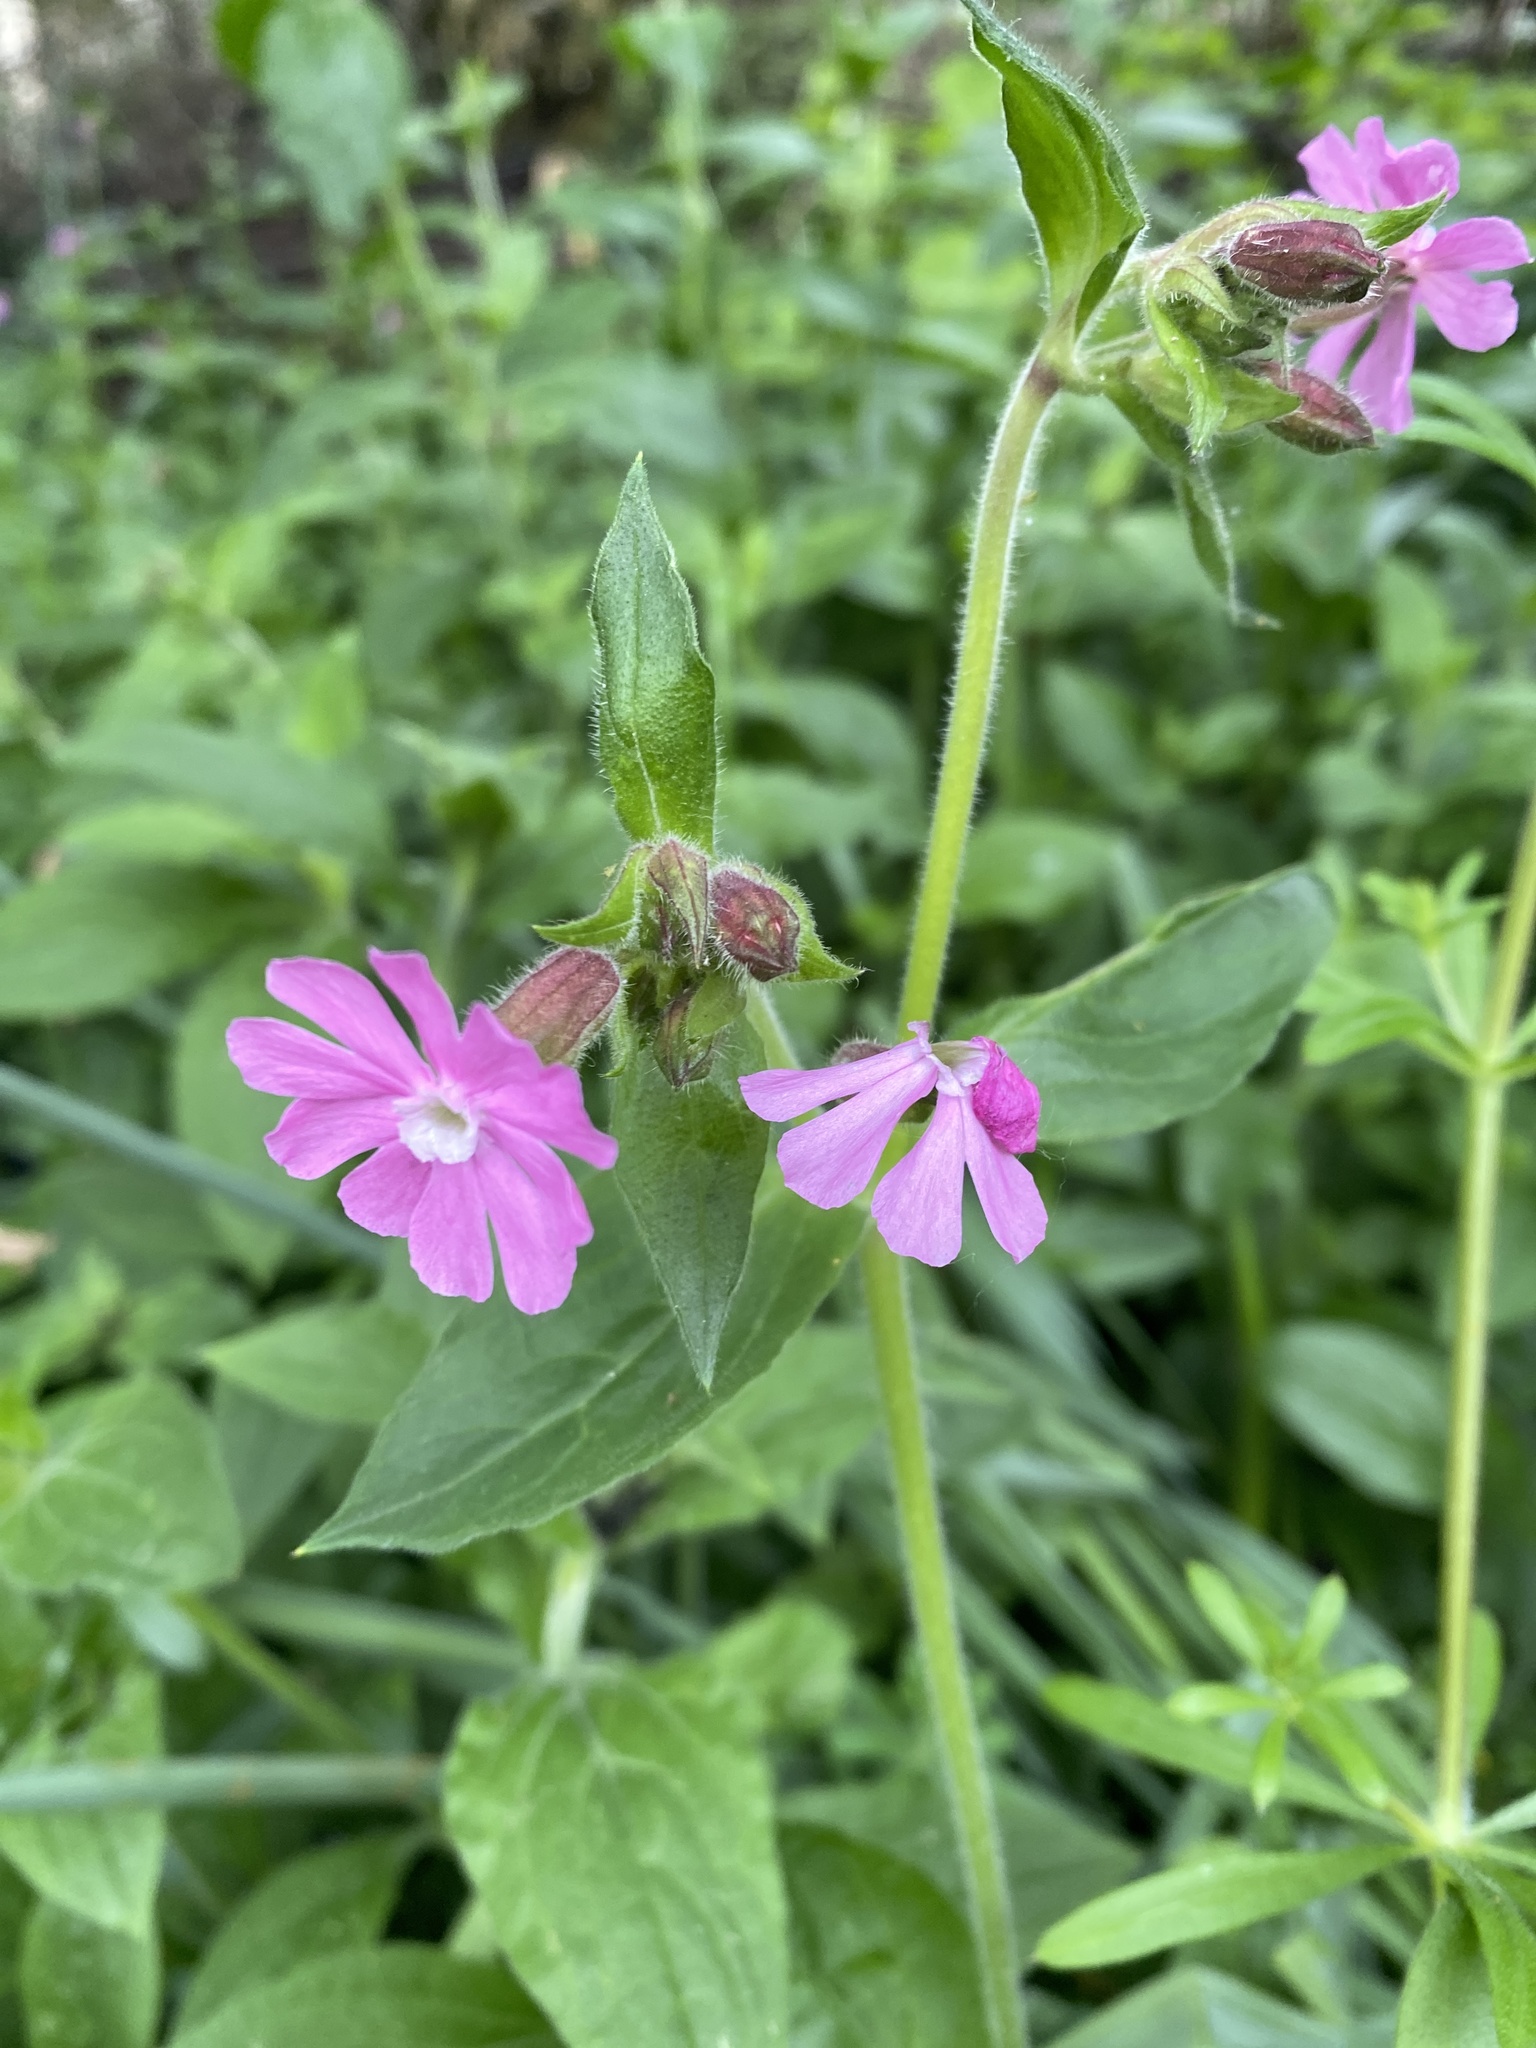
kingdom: Plantae
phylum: Tracheophyta
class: Magnoliopsida
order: Caryophyllales
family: Caryophyllaceae
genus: Silene
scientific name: Silene dioica
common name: Red campion
